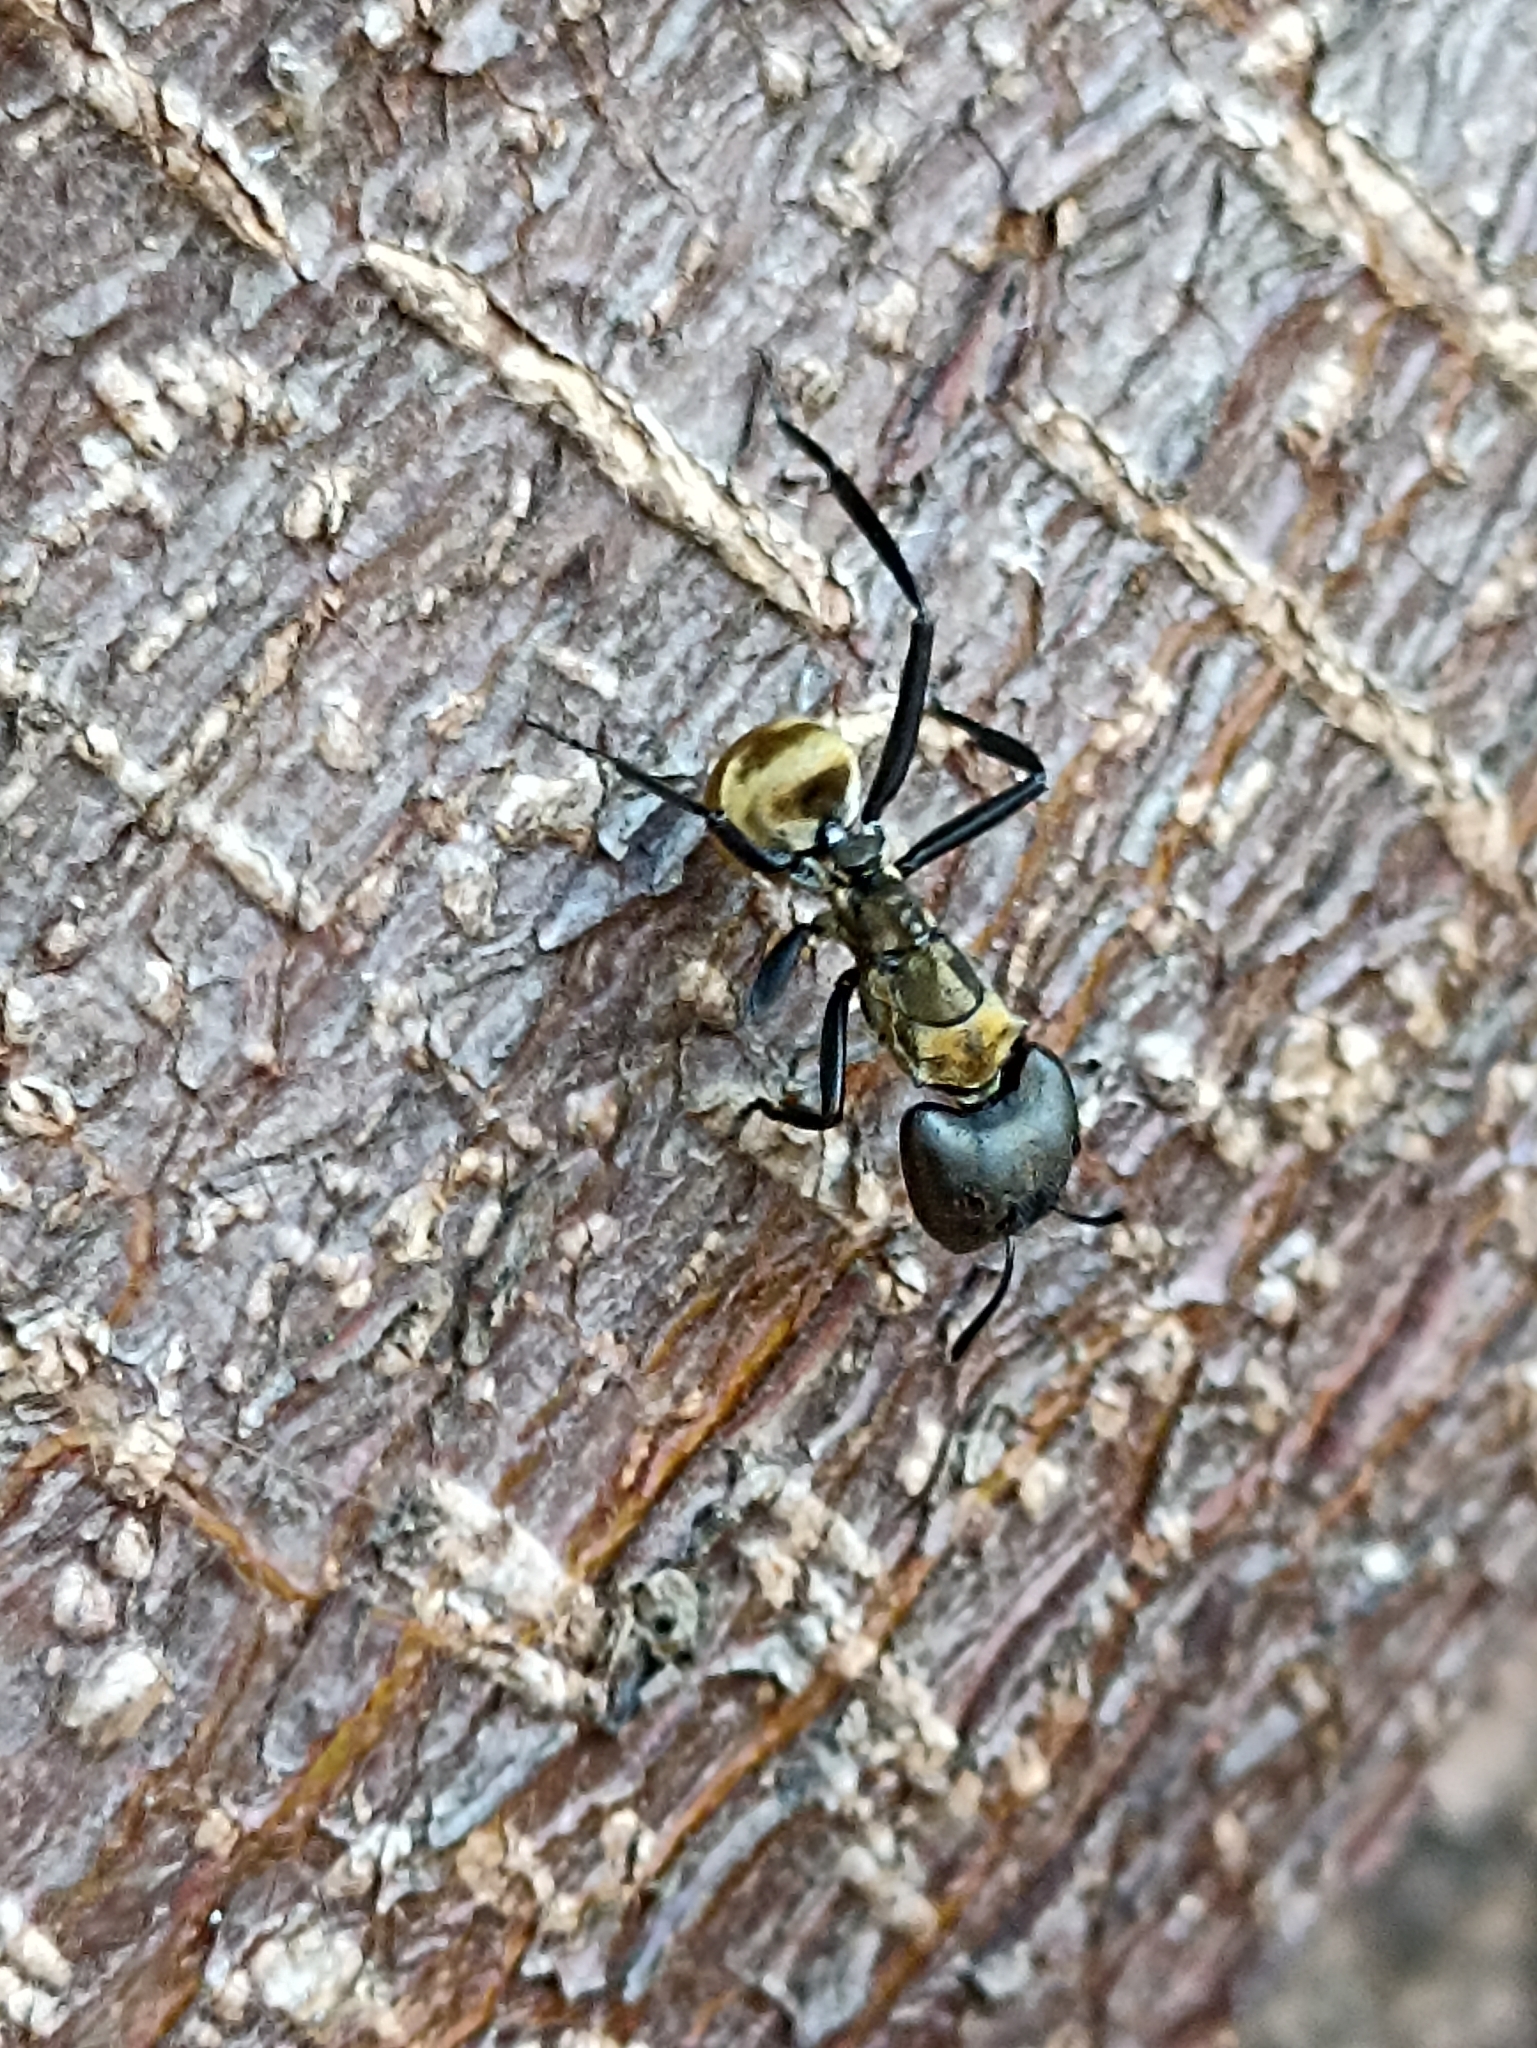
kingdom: Animalia
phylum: Arthropoda
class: Insecta
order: Hymenoptera
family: Formicidae
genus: Camponotus
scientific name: Camponotus sericeiventris
